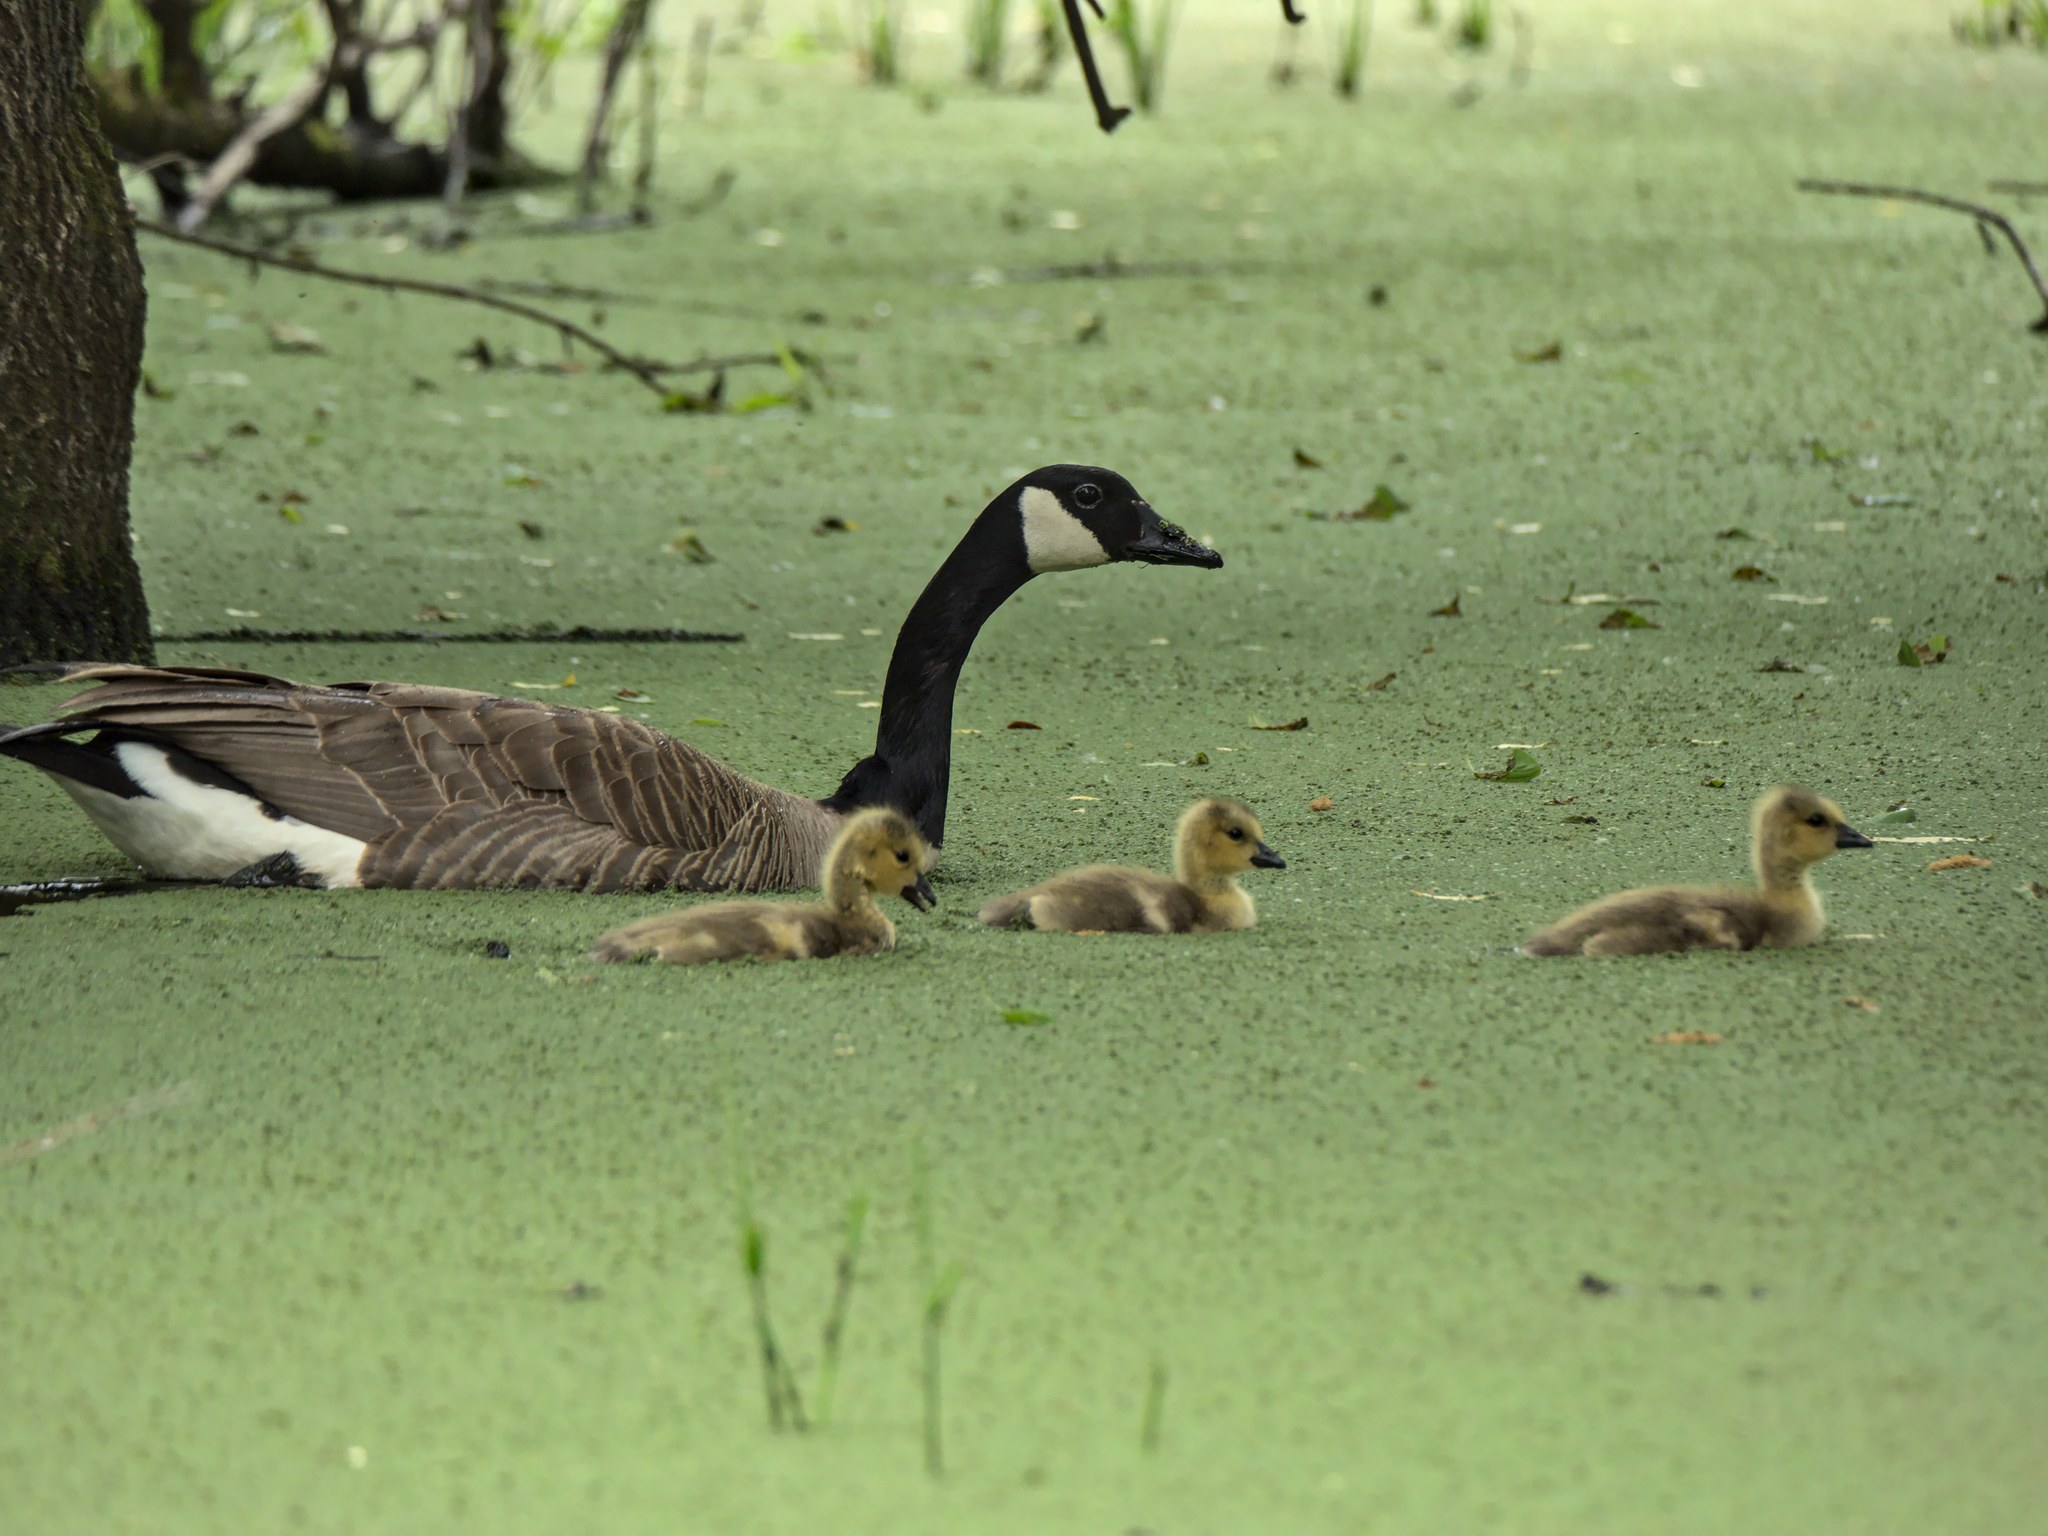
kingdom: Animalia
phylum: Chordata
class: Aves
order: Anseriformes
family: Anatidae
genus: Branta
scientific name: Branta canadensis
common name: Canada goose
